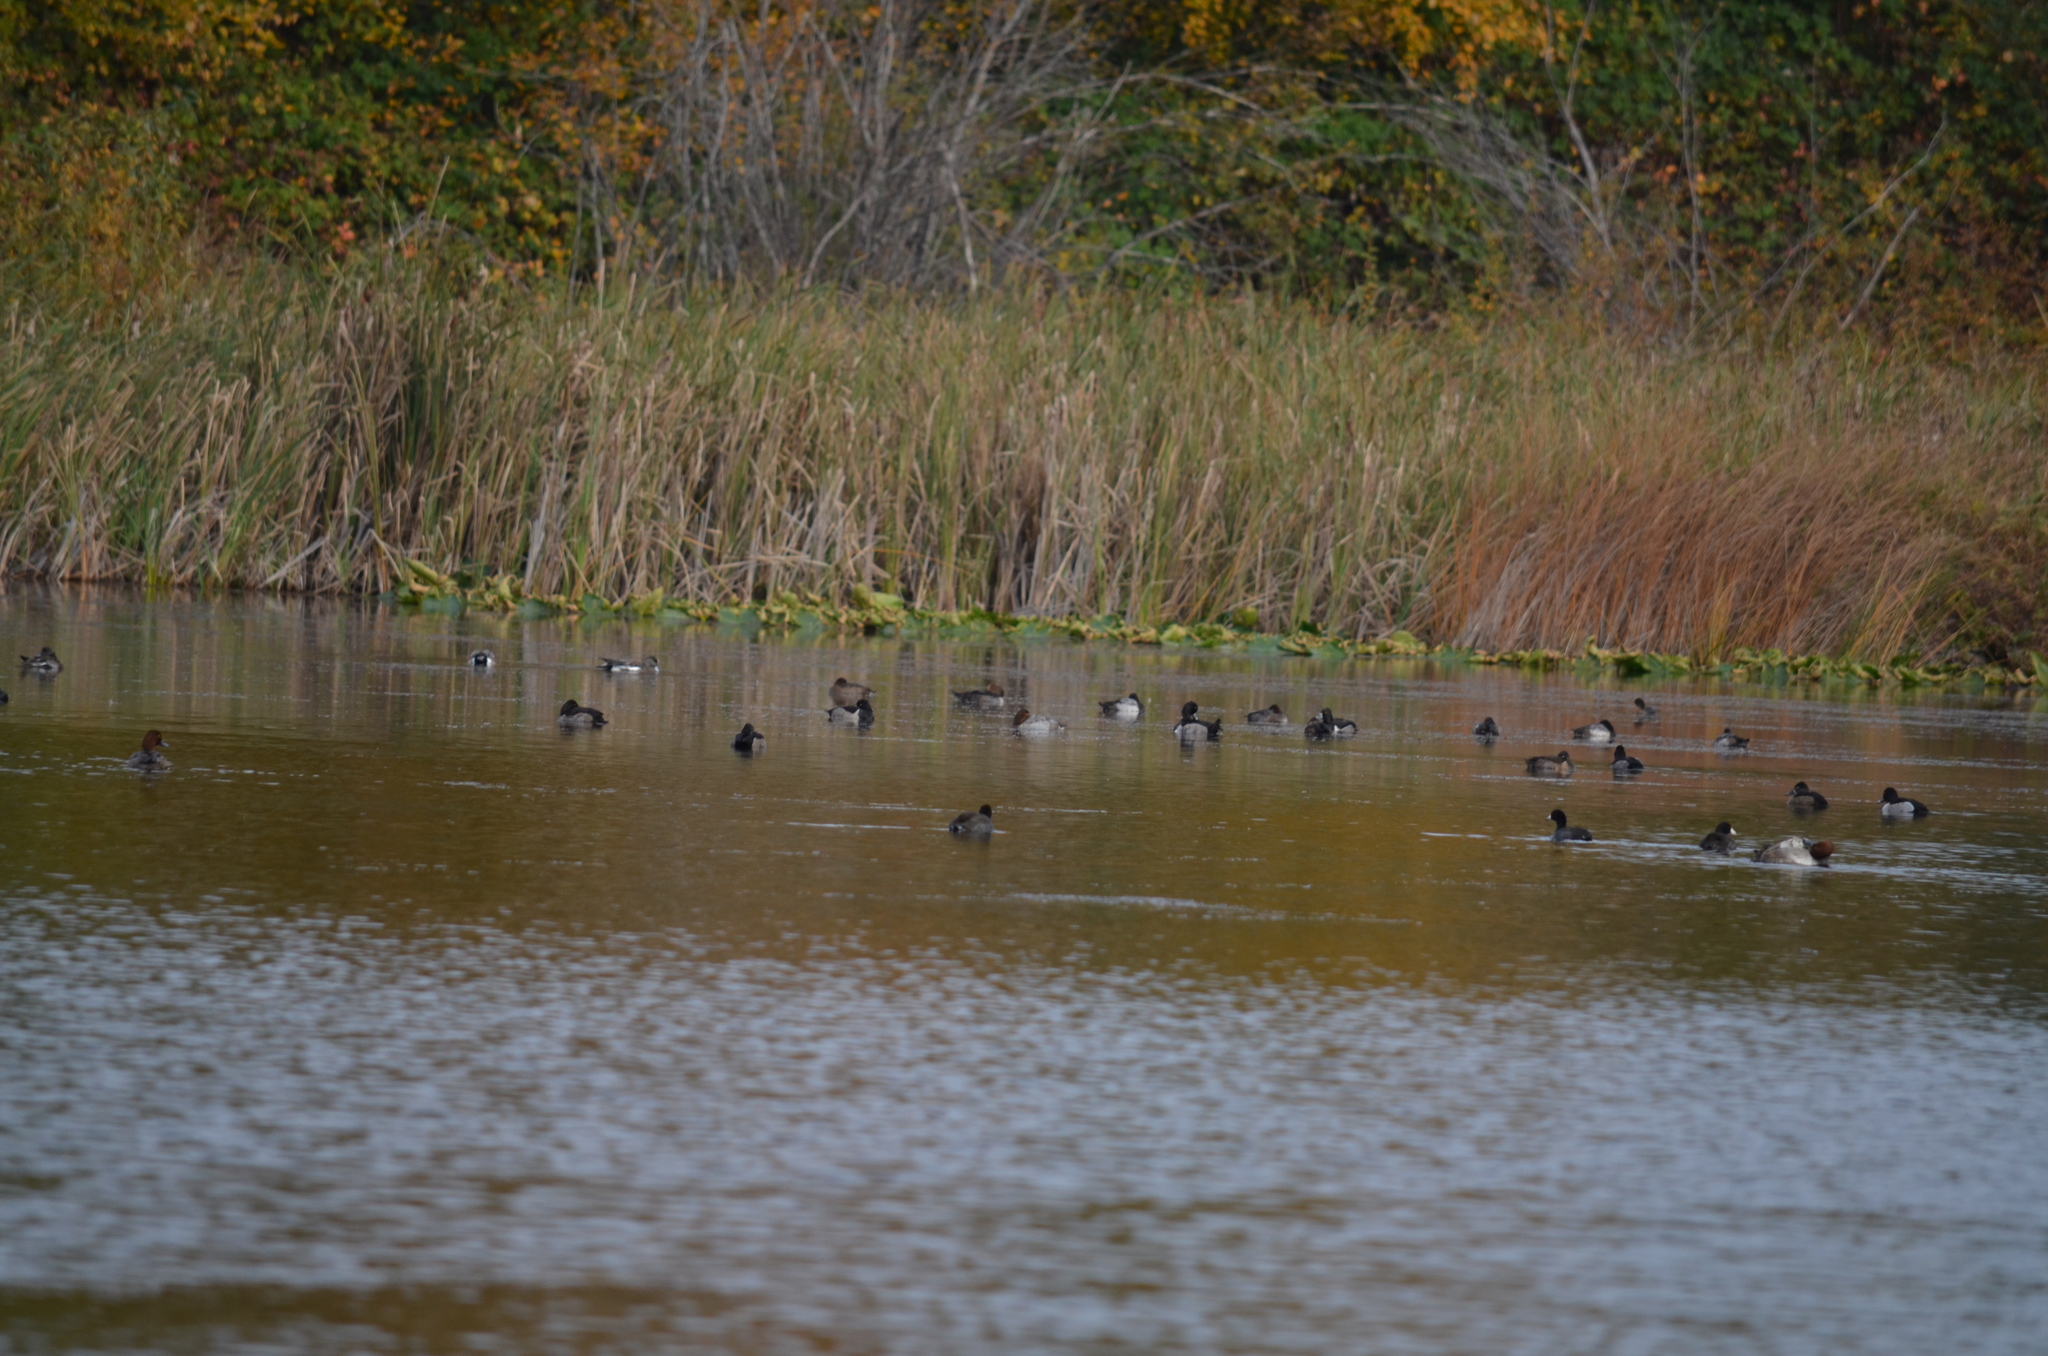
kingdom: Animalia
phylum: Chordata
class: Aves
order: Anseriformes
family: Anatidae
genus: Aythya
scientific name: Aythya americana
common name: Redhead
